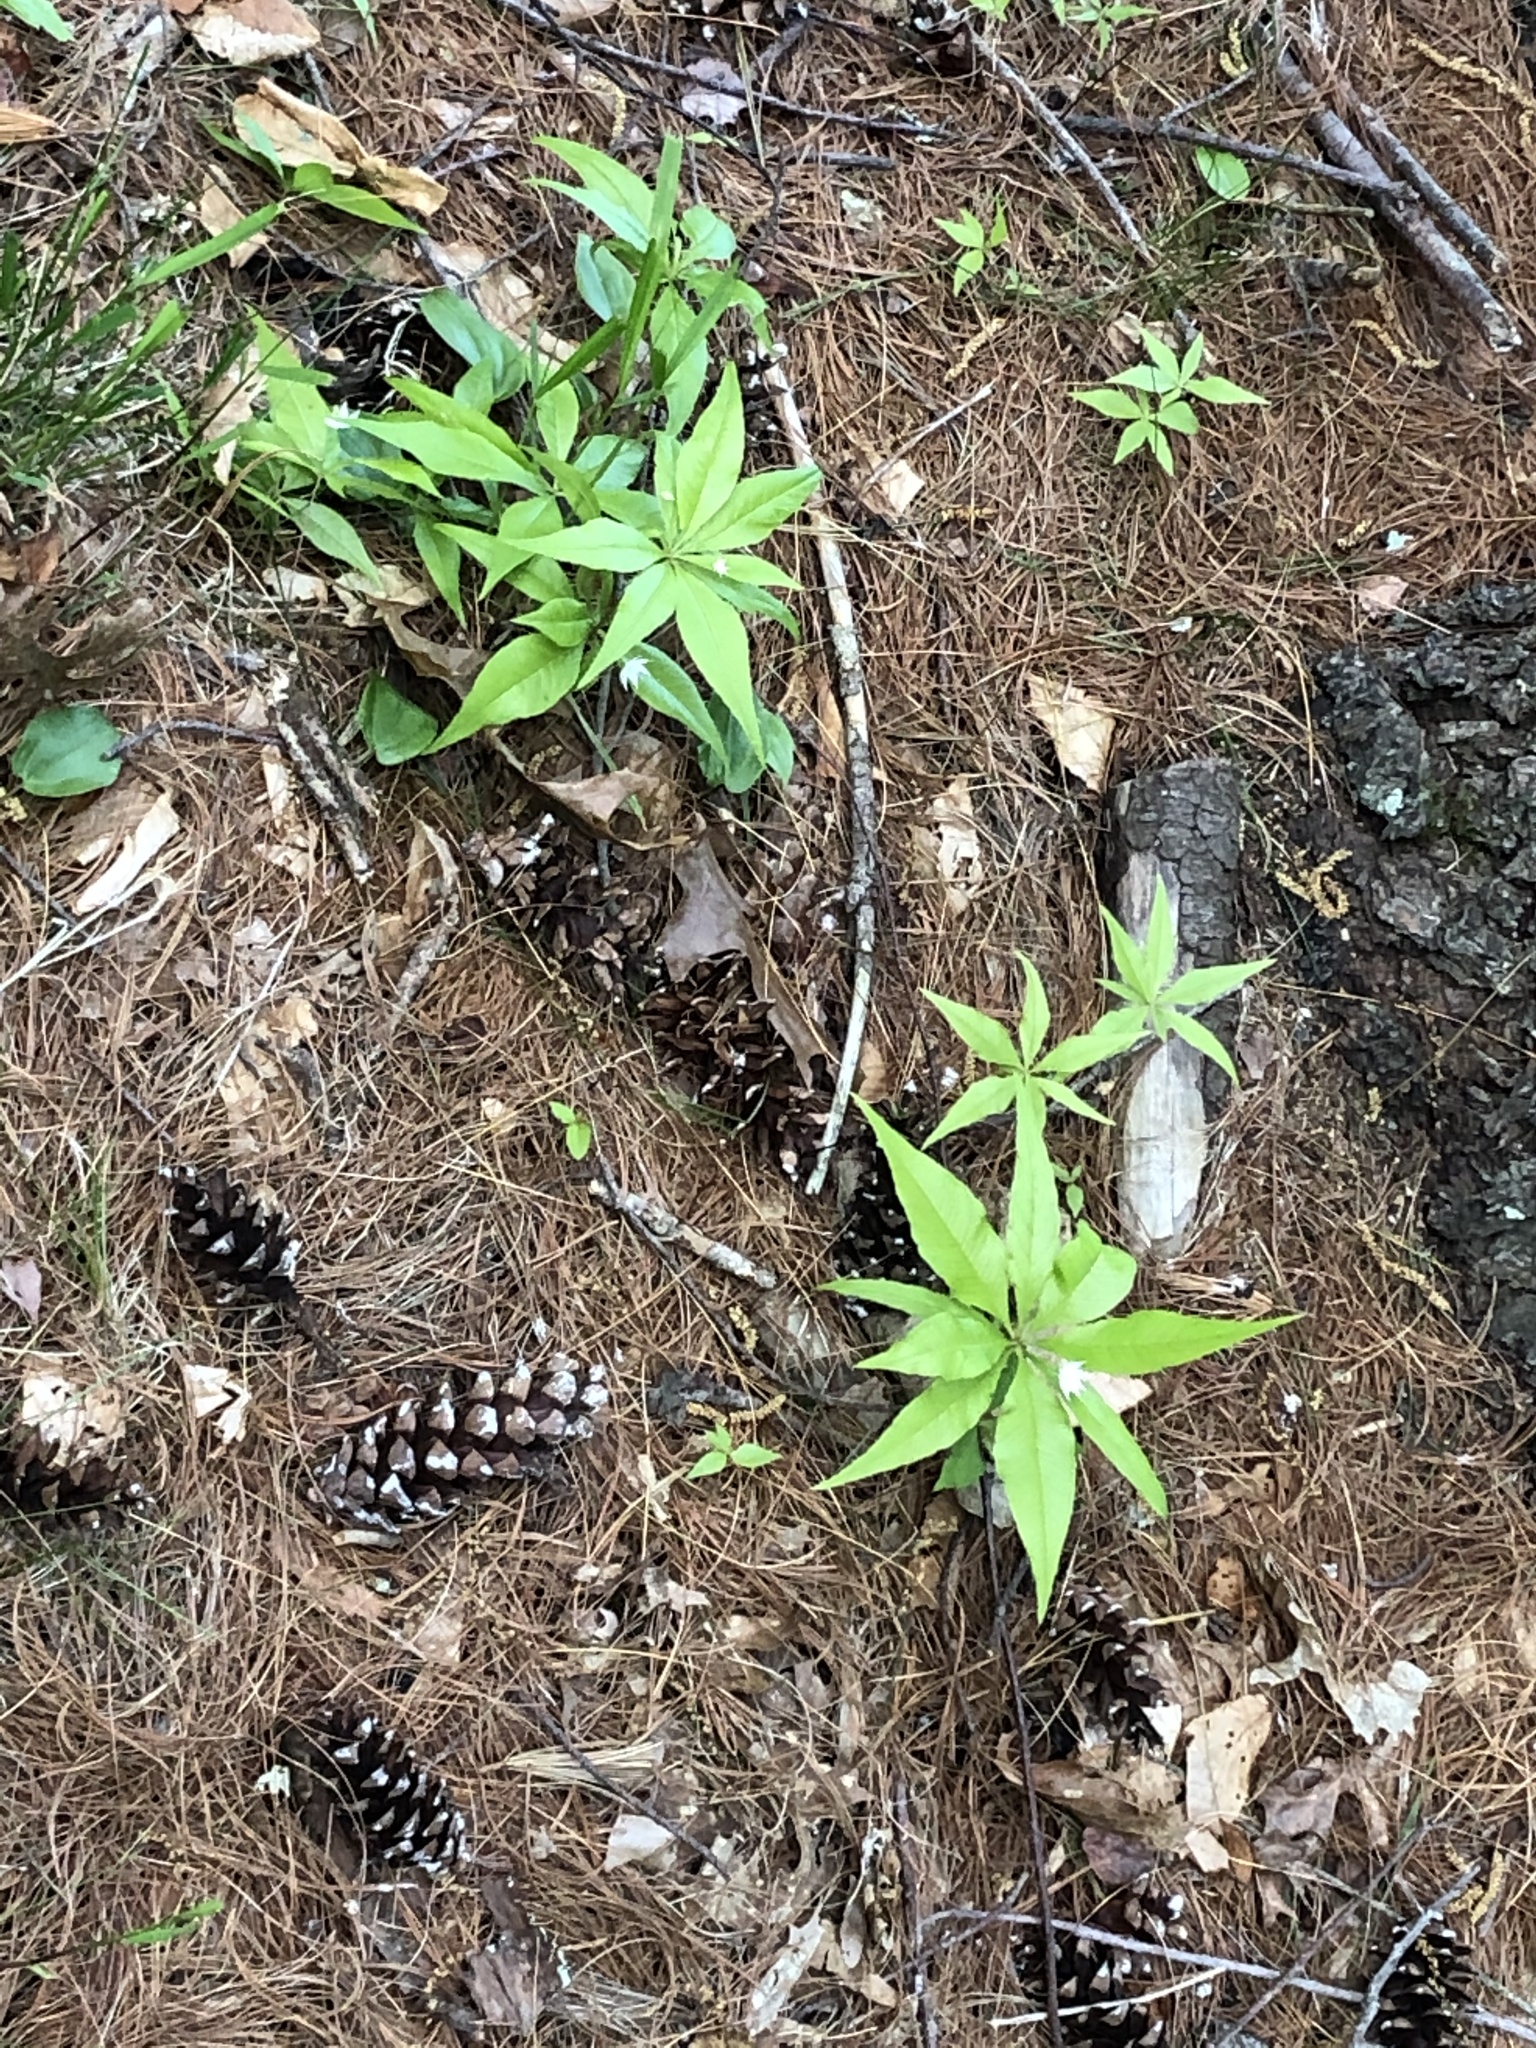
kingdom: Plantae
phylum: Tracheophyta
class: Magnoliopsida
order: Ericales
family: Primulaceae
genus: Lysimachia
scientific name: Lysimachia borealis
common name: American starflower
